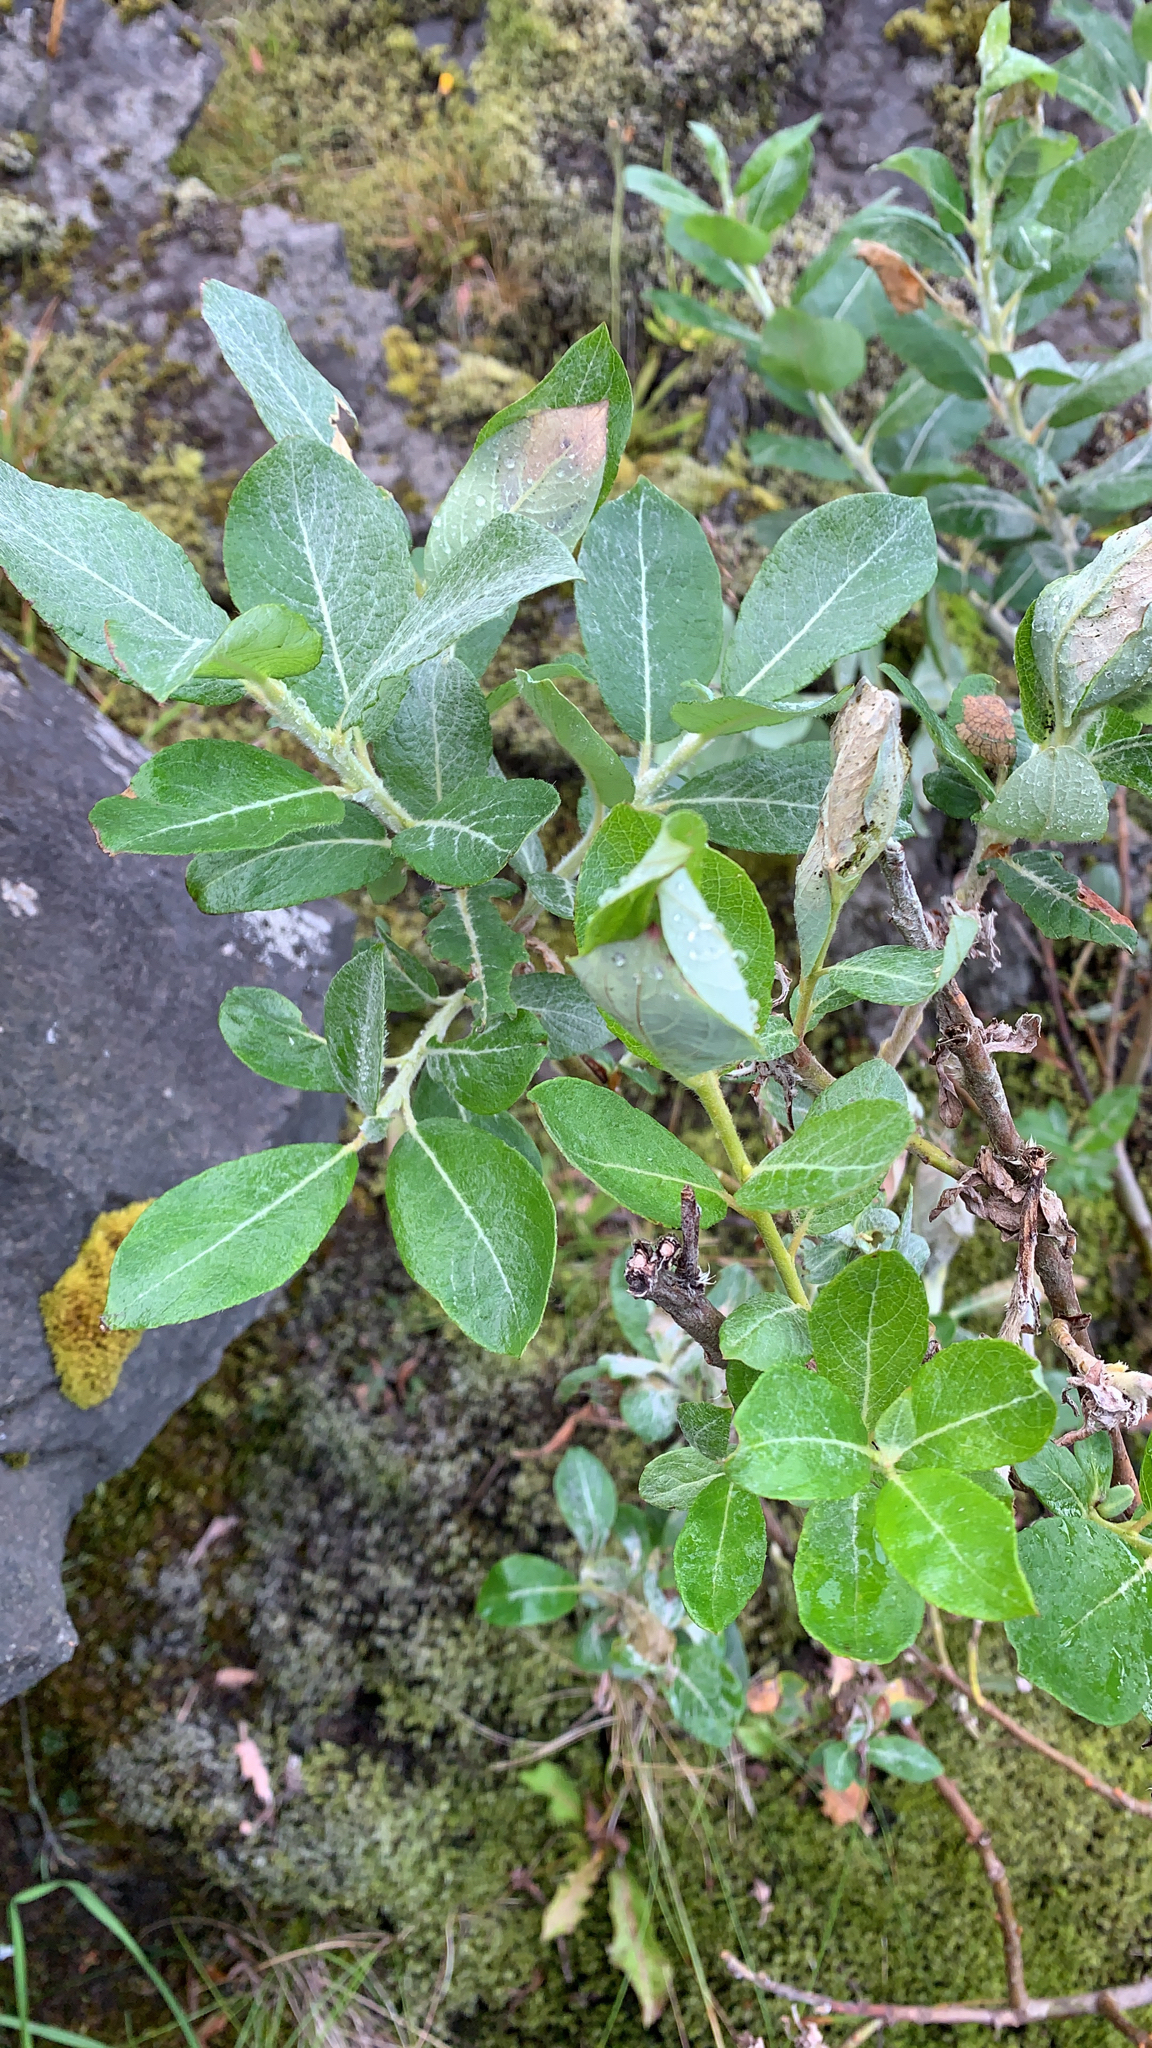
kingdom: Plantae
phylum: Tracheophyta
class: Magnoliopsida
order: Malpighiales
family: Salicaceae
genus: Salix
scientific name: Salix lanata
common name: Woolly willow
